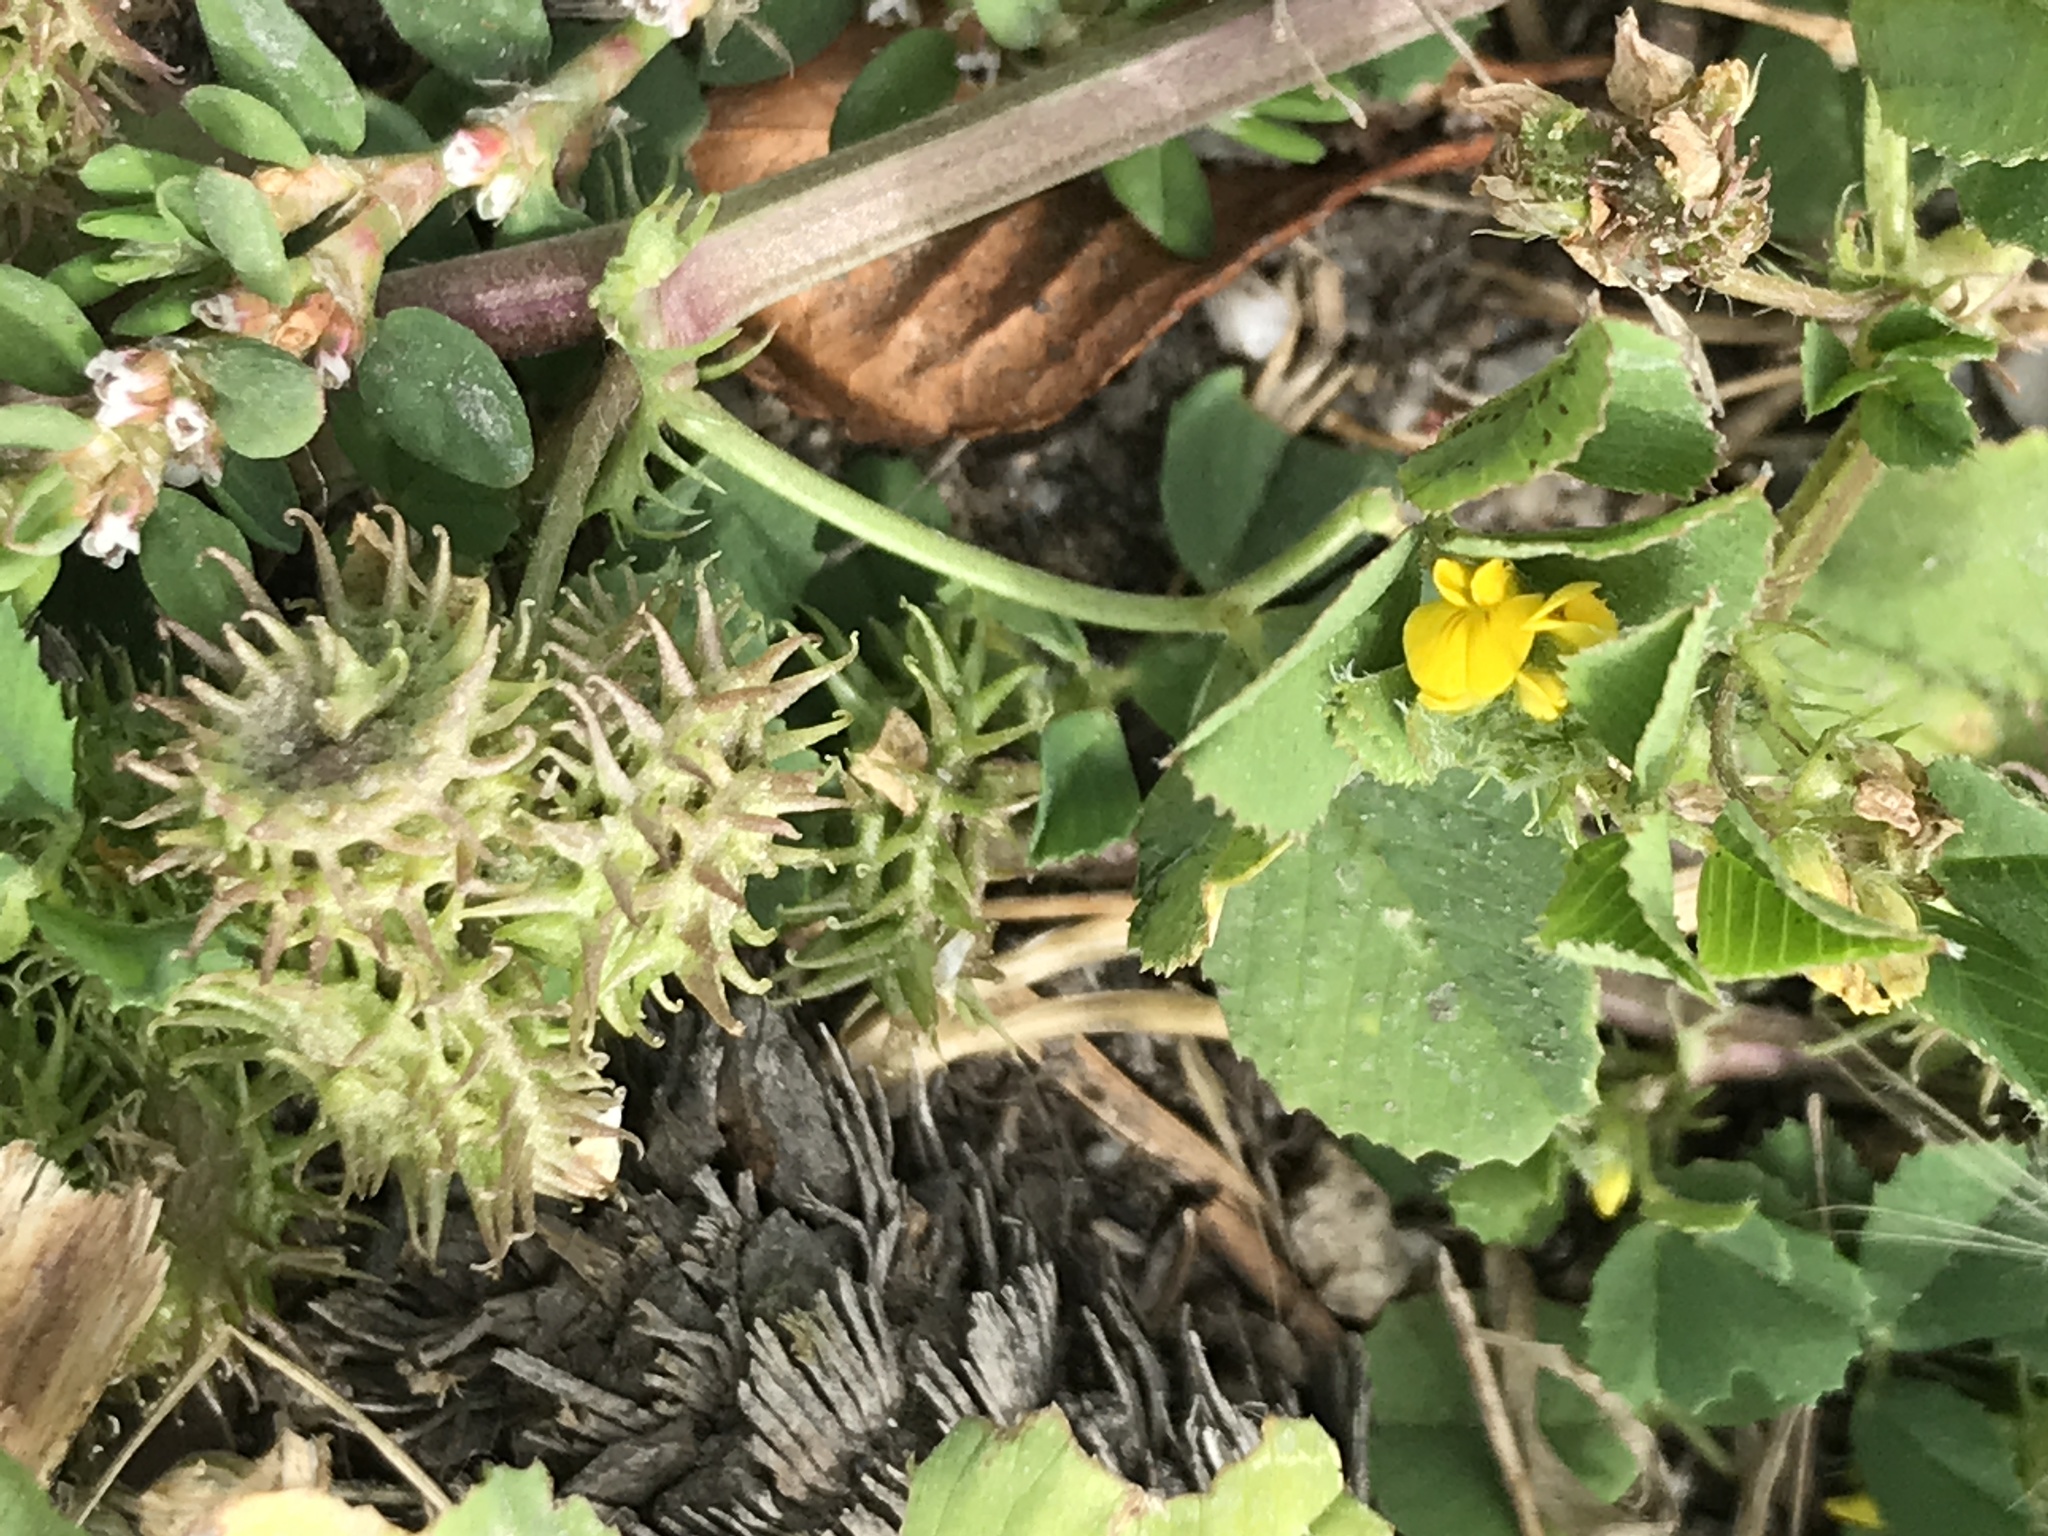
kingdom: Plantae
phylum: Tracheophyta
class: Magnoliopsida
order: Fabales
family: Fabaceae
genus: Medicago
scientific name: Medicago praecox
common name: Early medick
